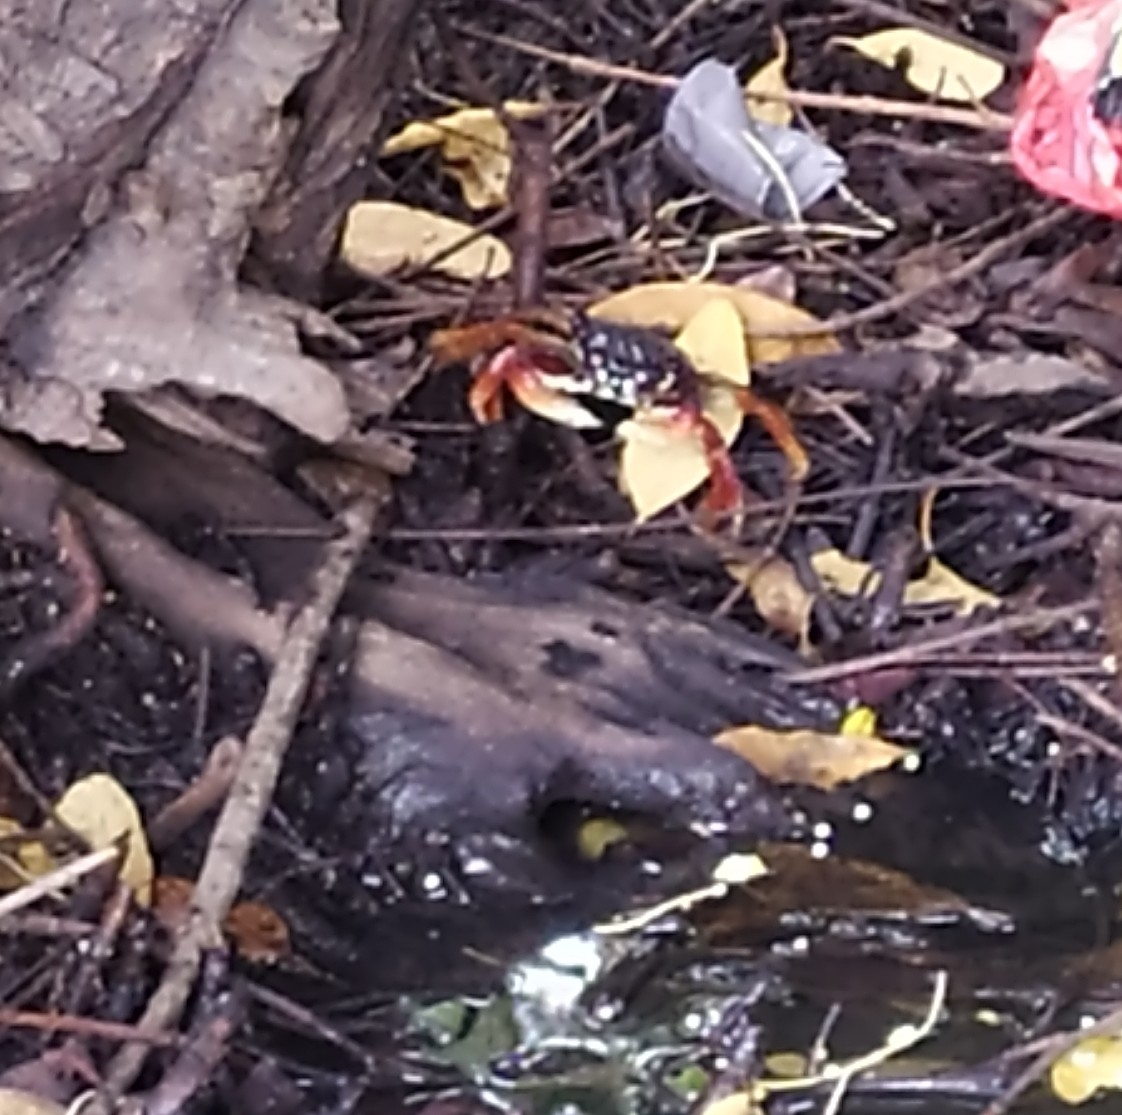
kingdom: Animalia
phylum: Arthropoda
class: Malacostraca
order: Decapoda
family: Grapsidae
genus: Goniopsis
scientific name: Goniopsis cruentata
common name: Mangrove crab
